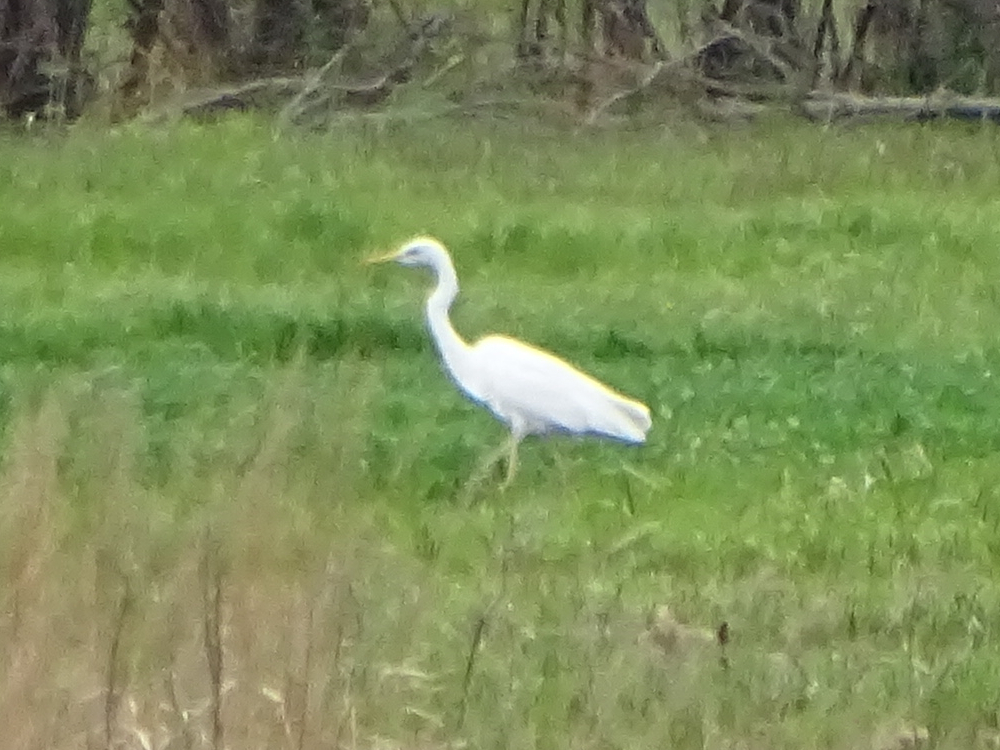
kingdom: Animalia
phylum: Chordata
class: Aves
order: Pelecaniformes
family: Ardeidae
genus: Ardea
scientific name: Ardea alba
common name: Great egret
